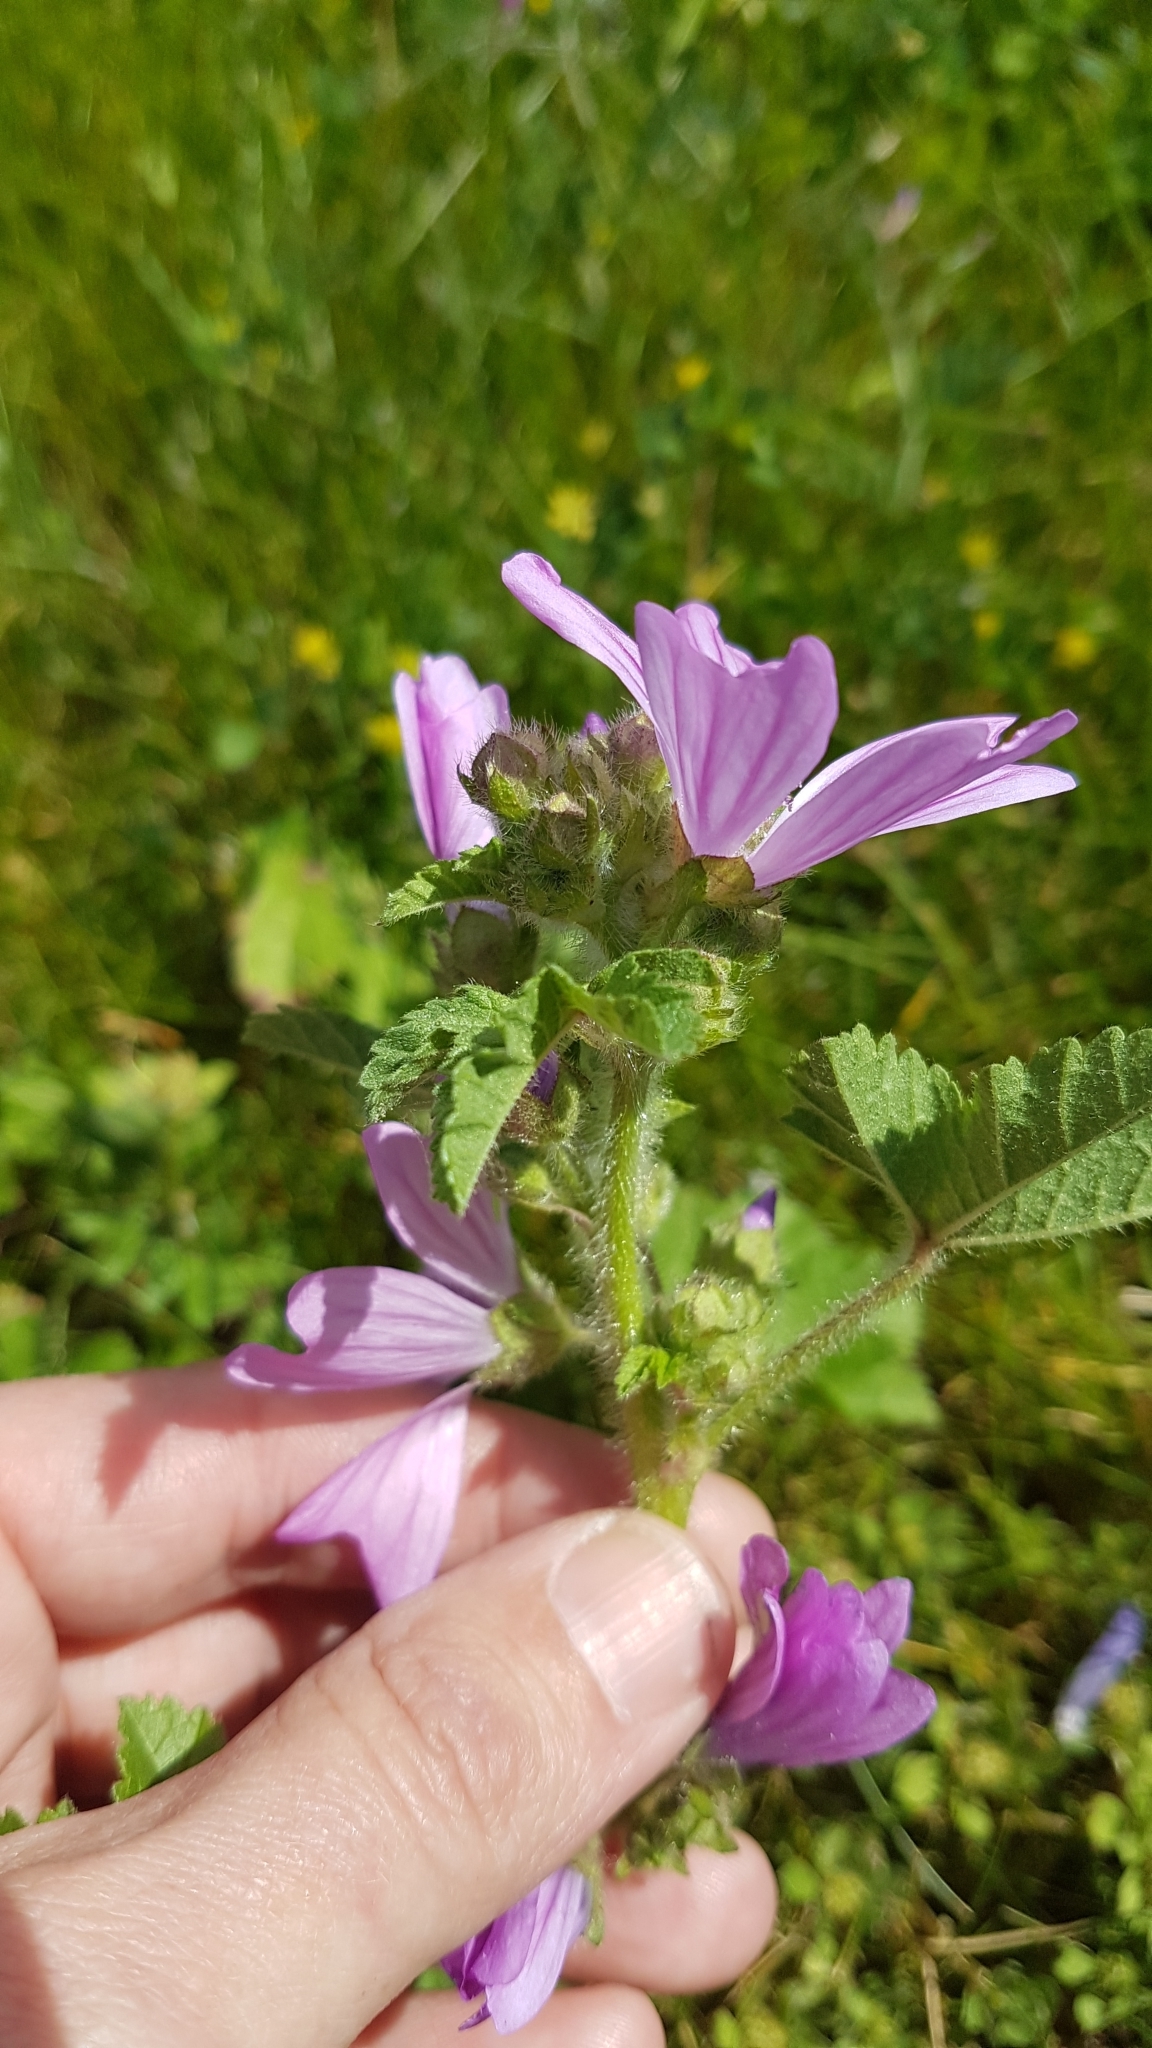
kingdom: Plantae
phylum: Tracheophyta
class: Magnoliopsida
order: Malvales
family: Malvaceae
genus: Malva
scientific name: Malva sylvestris
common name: Common mallow
